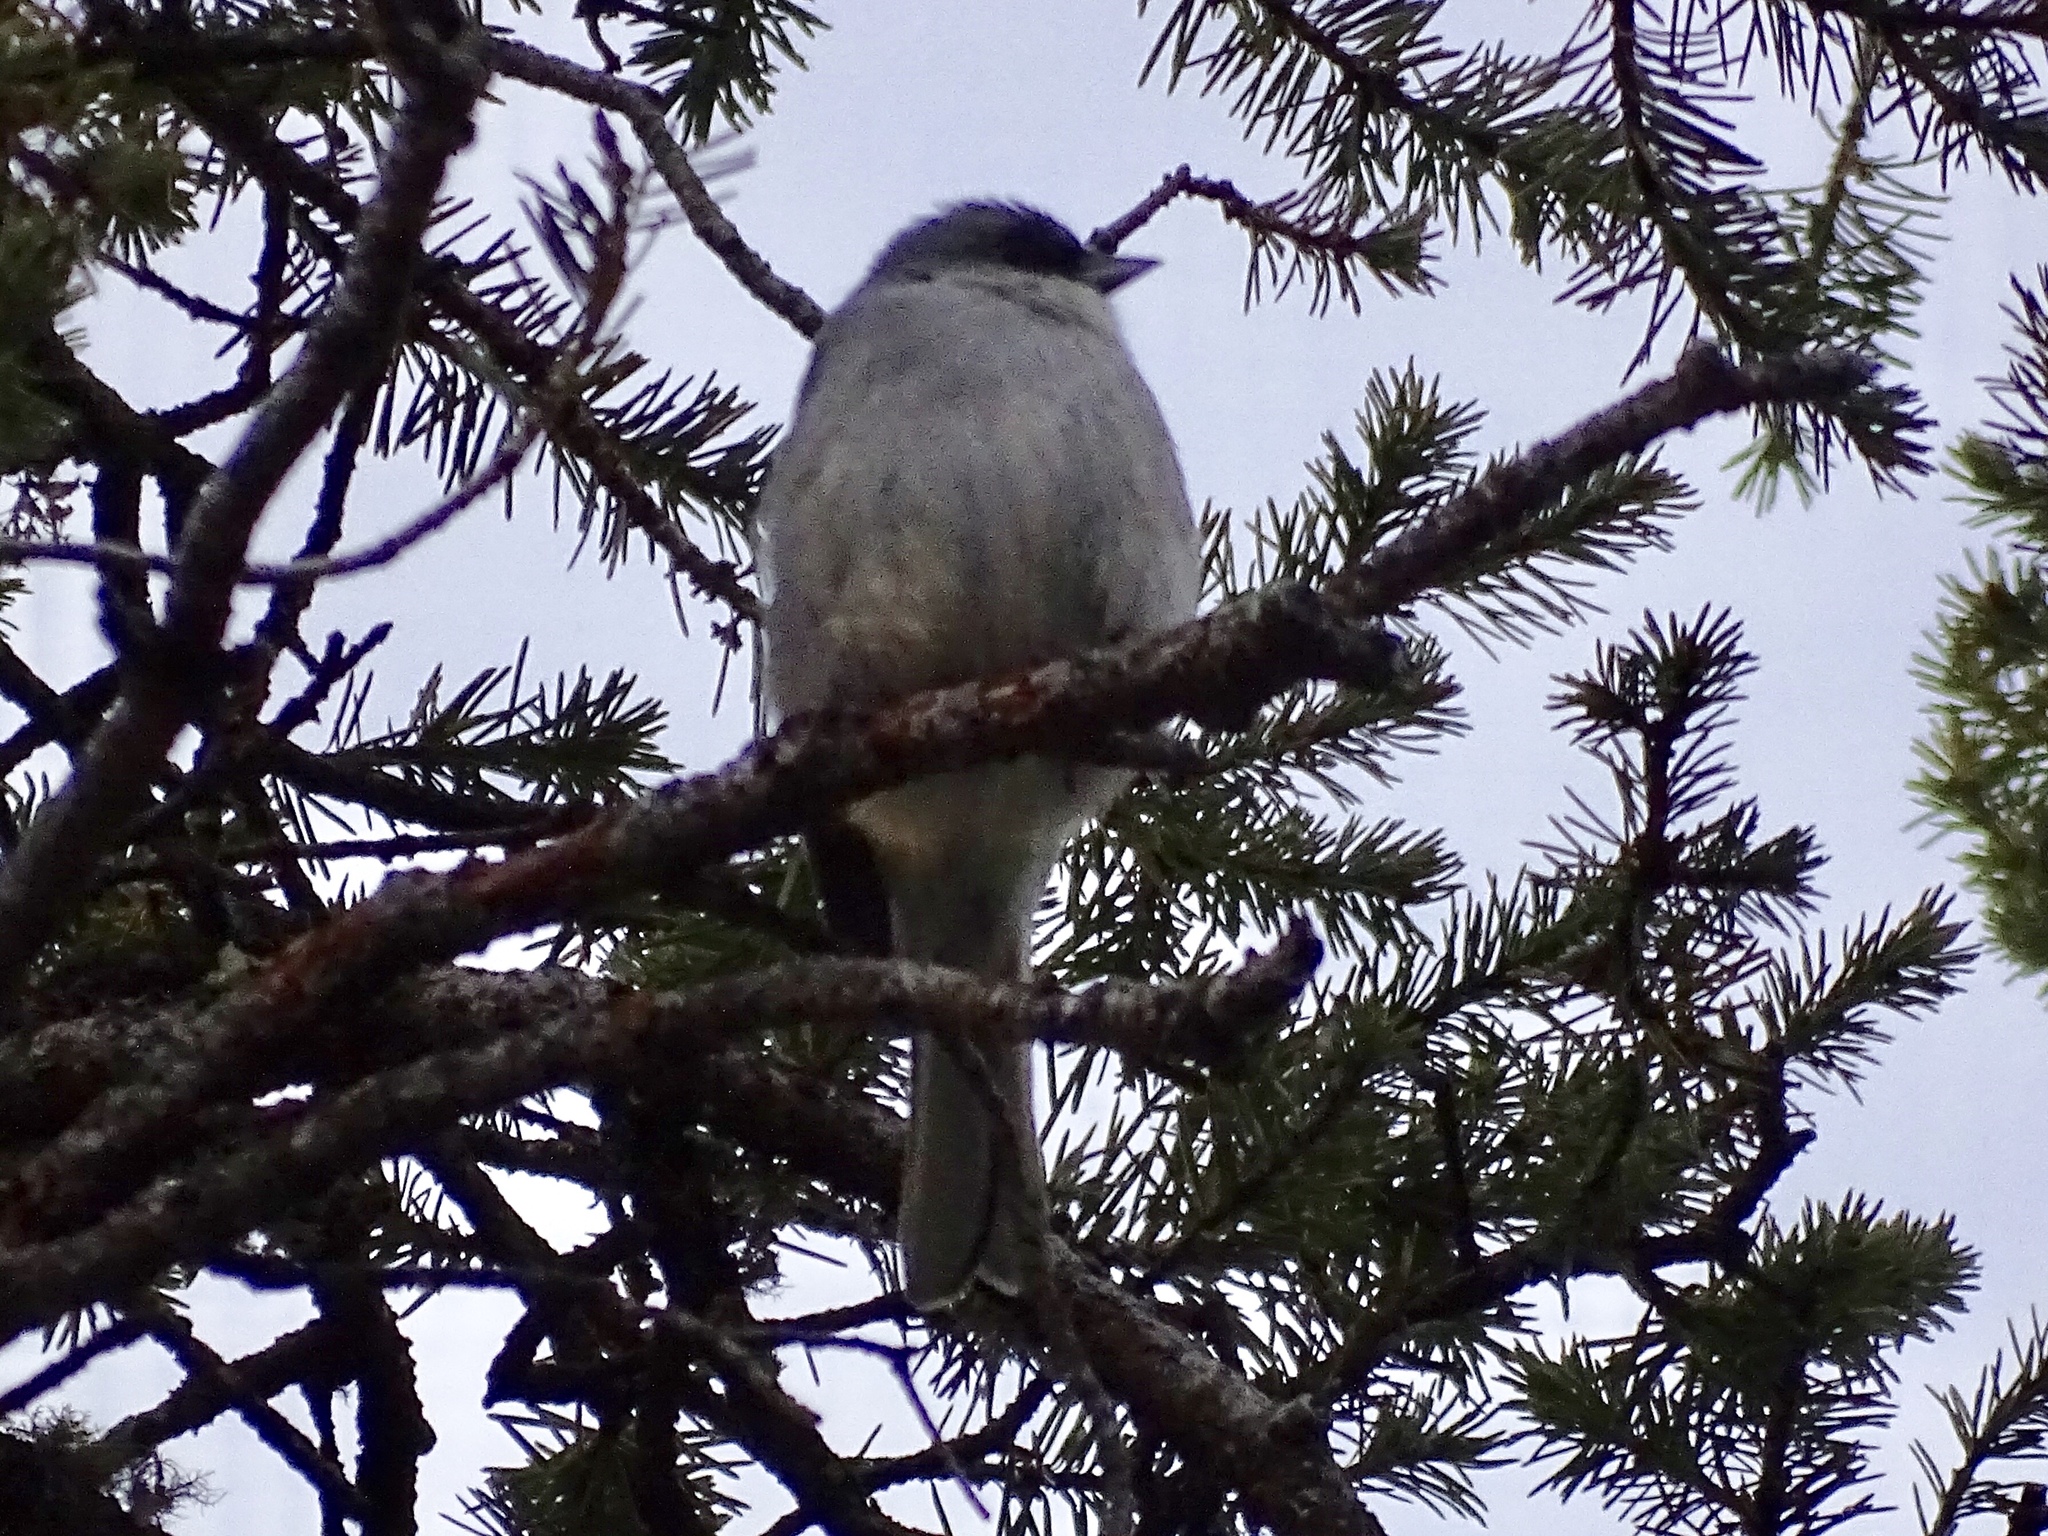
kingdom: Animalia
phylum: Chordata
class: Aves
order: Passeriformes
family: Passerellidae
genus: Junco
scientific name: Junco hyemalis
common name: Dark-eyed junco
